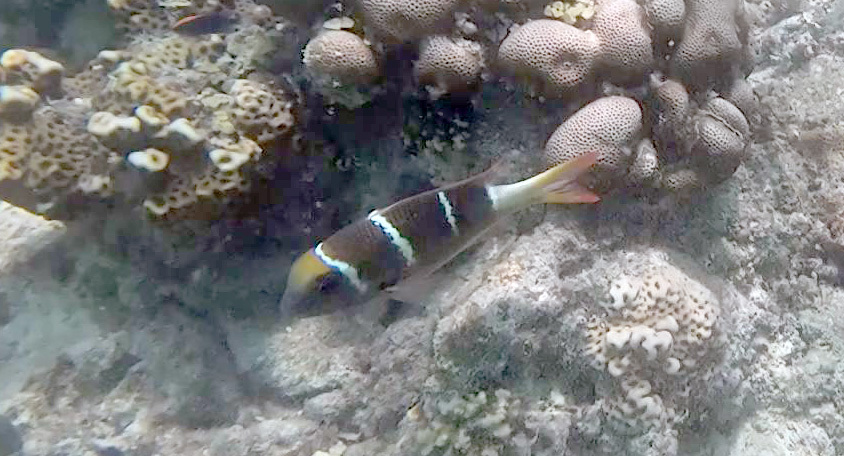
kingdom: Animalia
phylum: Chordata
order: Perciformes
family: Lethrinidae
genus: Monotaxis
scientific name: Monotaxis heterodon
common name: Redfin emperor
